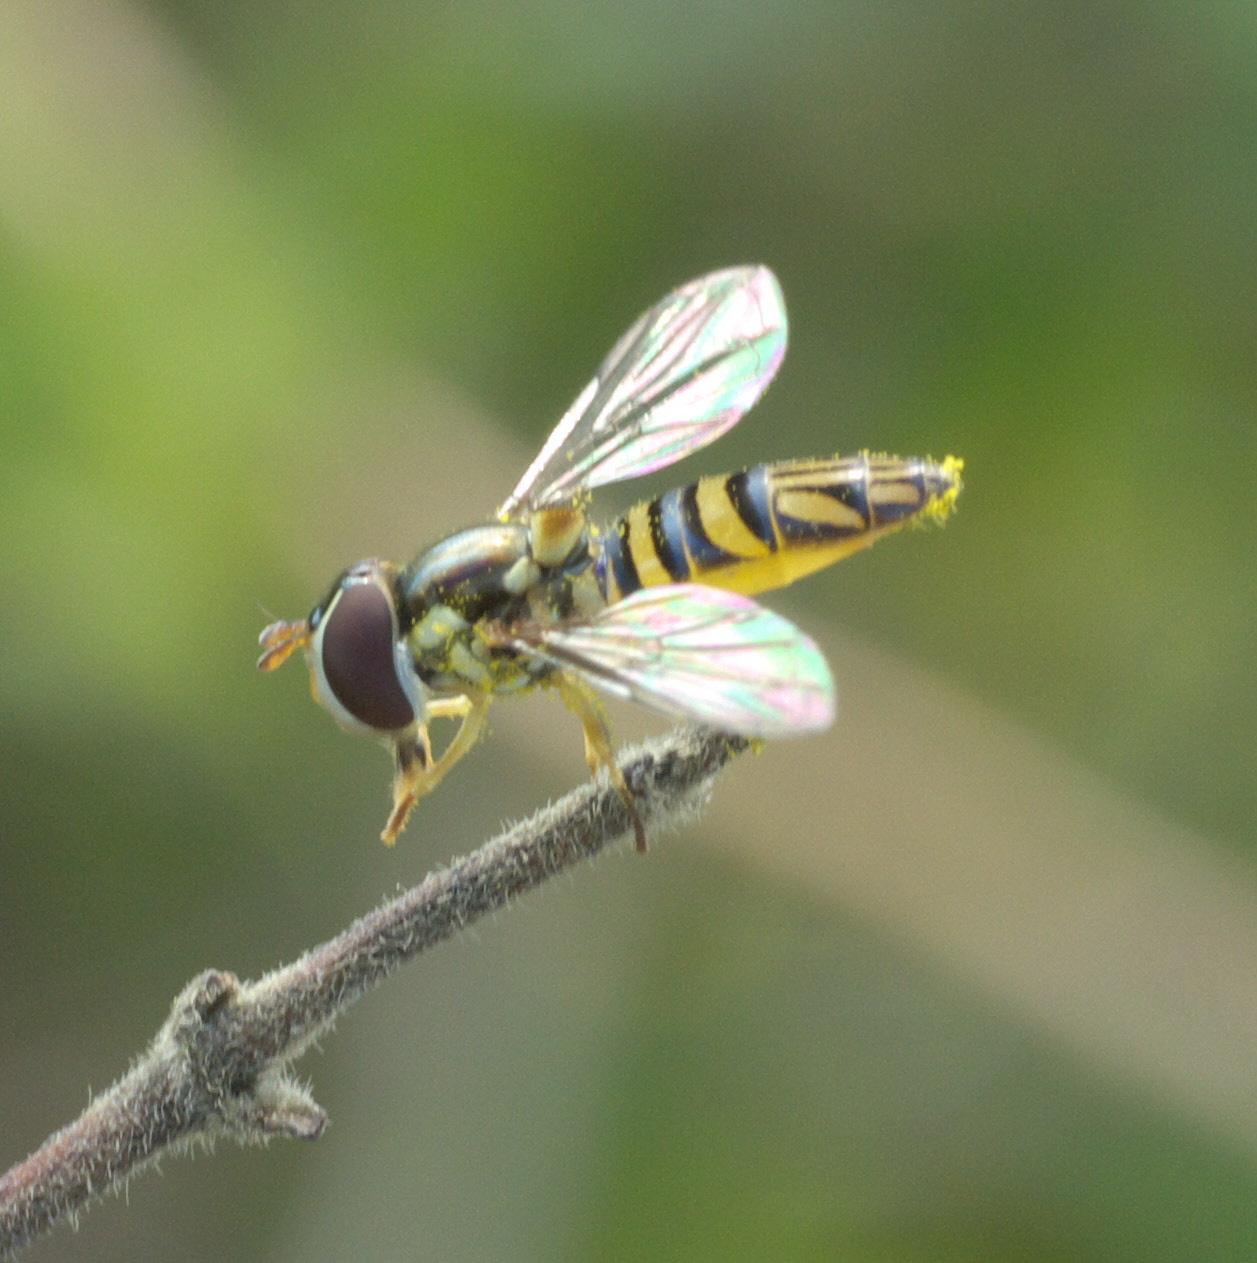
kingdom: Animalia
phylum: Arthropoda
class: Insecta
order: Diptera
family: Syrphidae
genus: Allograpta
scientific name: Allograpta obliqua
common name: Common oblique syrphid
